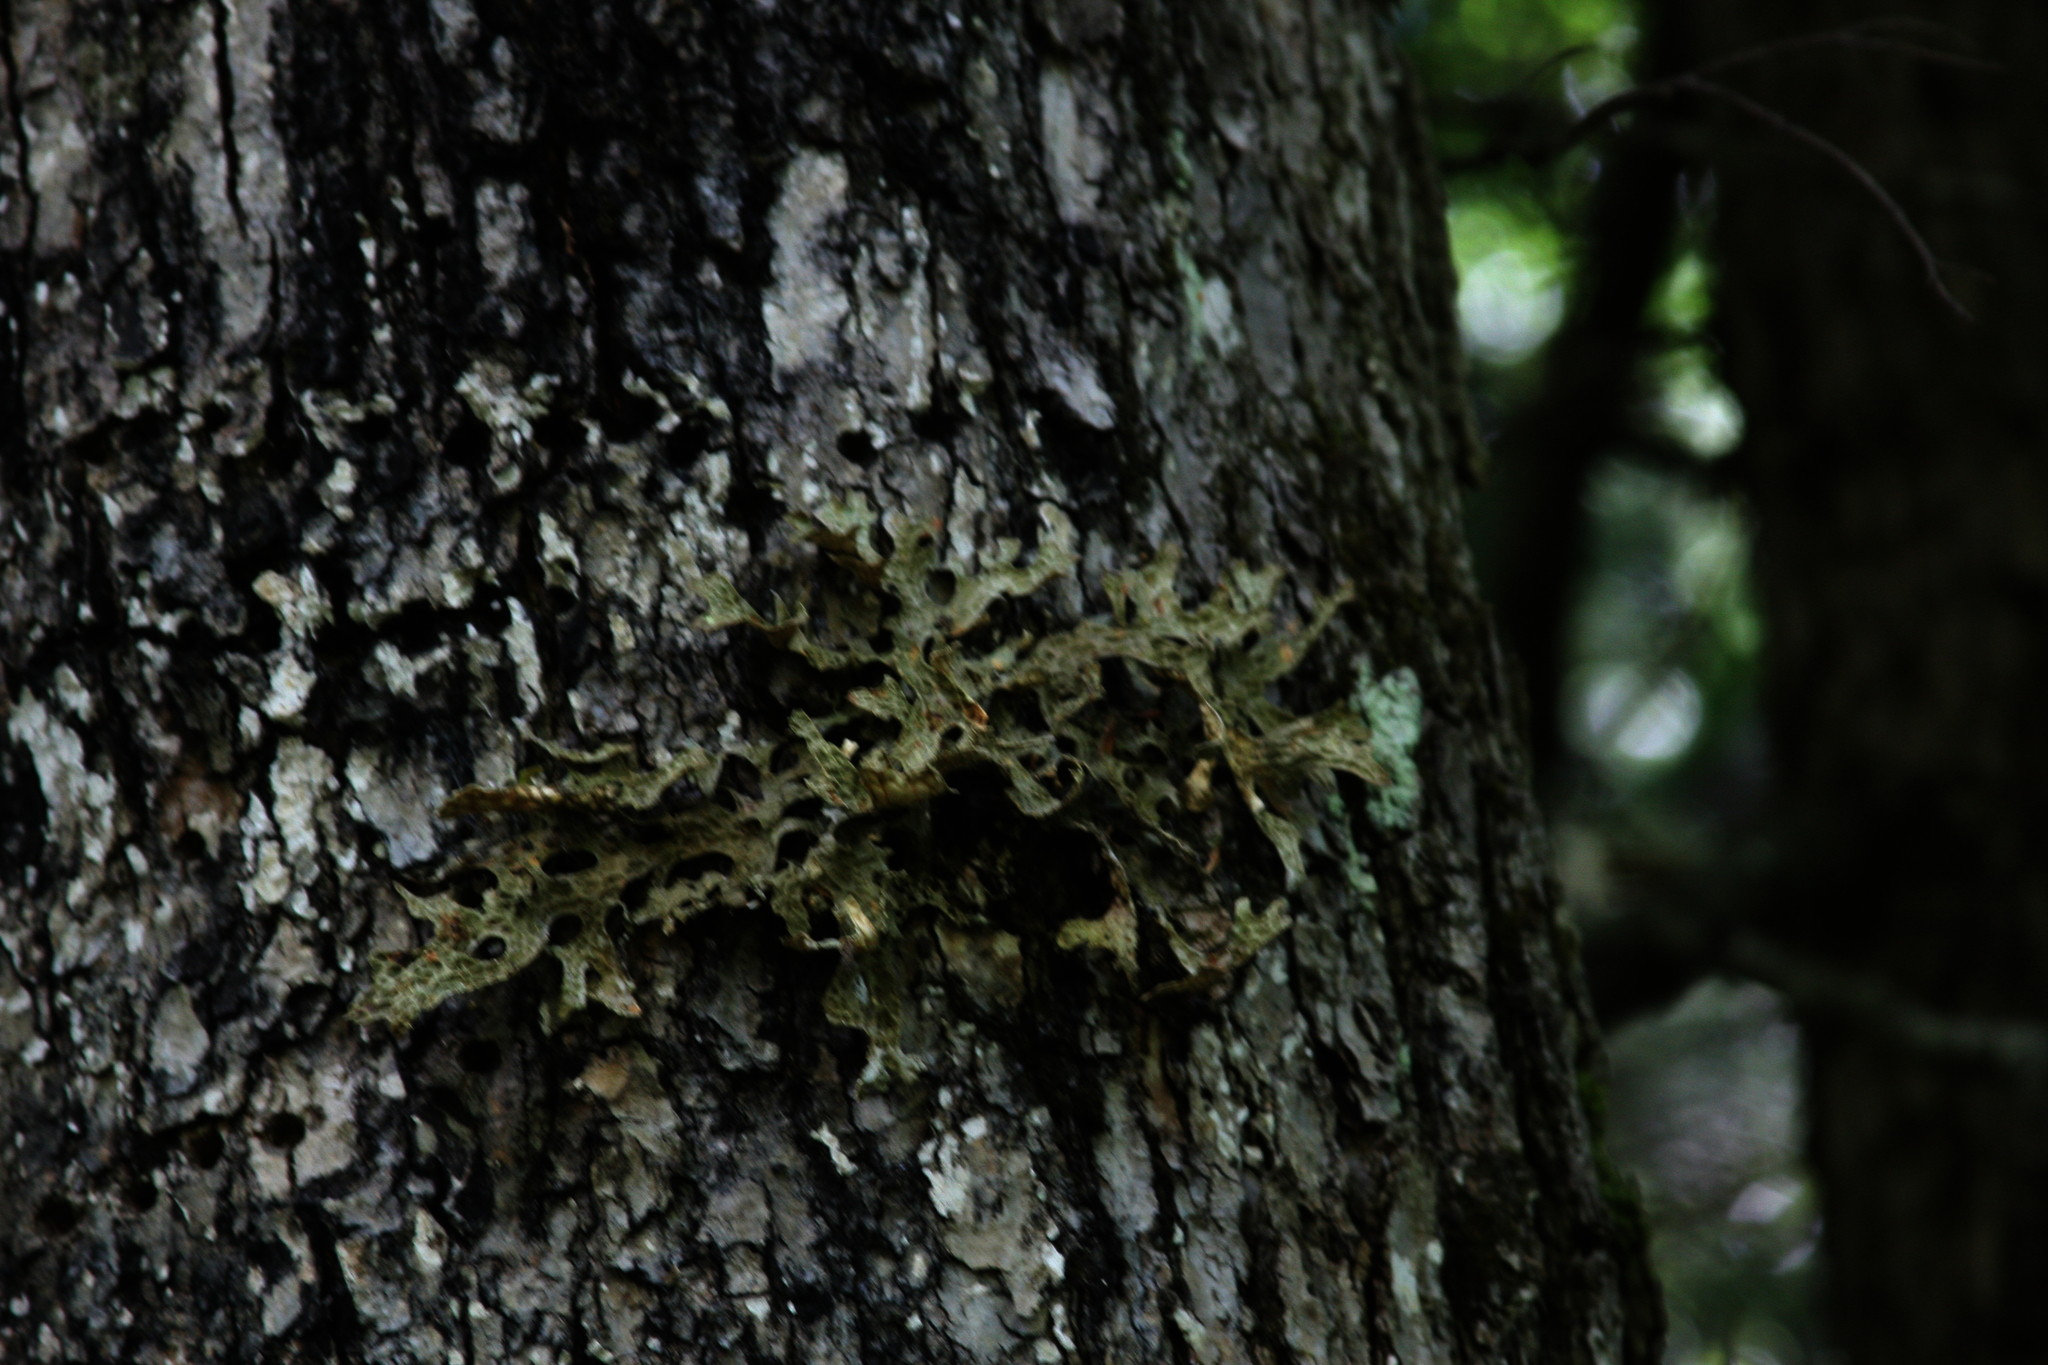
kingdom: Fungi
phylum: Ascomycota
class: Lecanoromycetes
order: Peltigerales
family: Lobariaceae
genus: Lobaria
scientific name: Lobaria pulmonaria
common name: Lungwort
